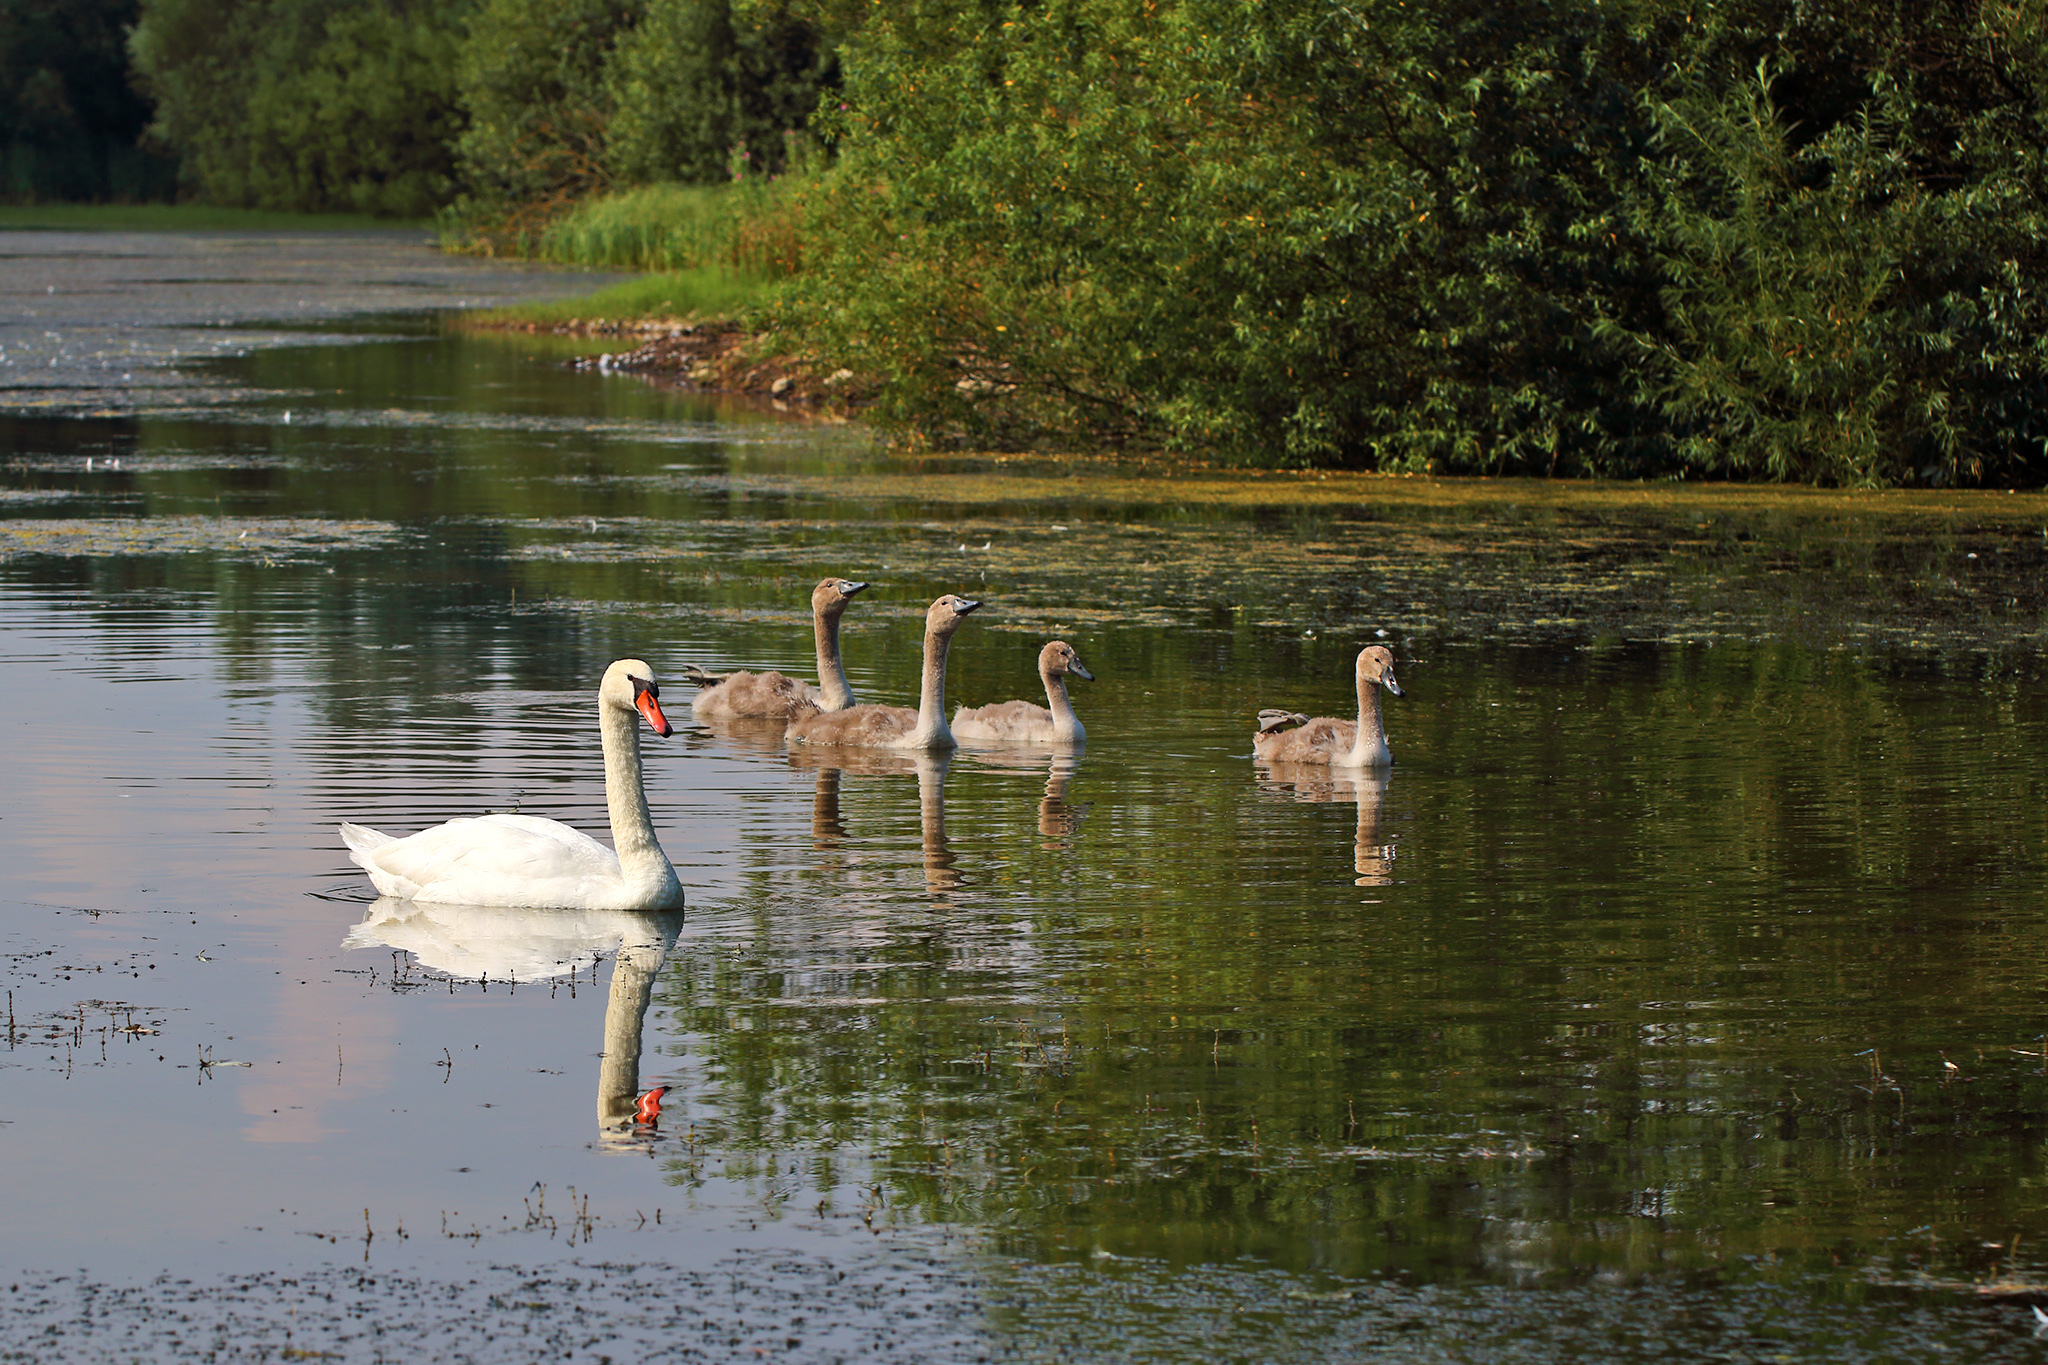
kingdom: Animalia
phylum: Chordata
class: Aves
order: Anseriformes
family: Anatidae
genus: Cygnus
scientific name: Cygnus olor
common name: Mute swan
